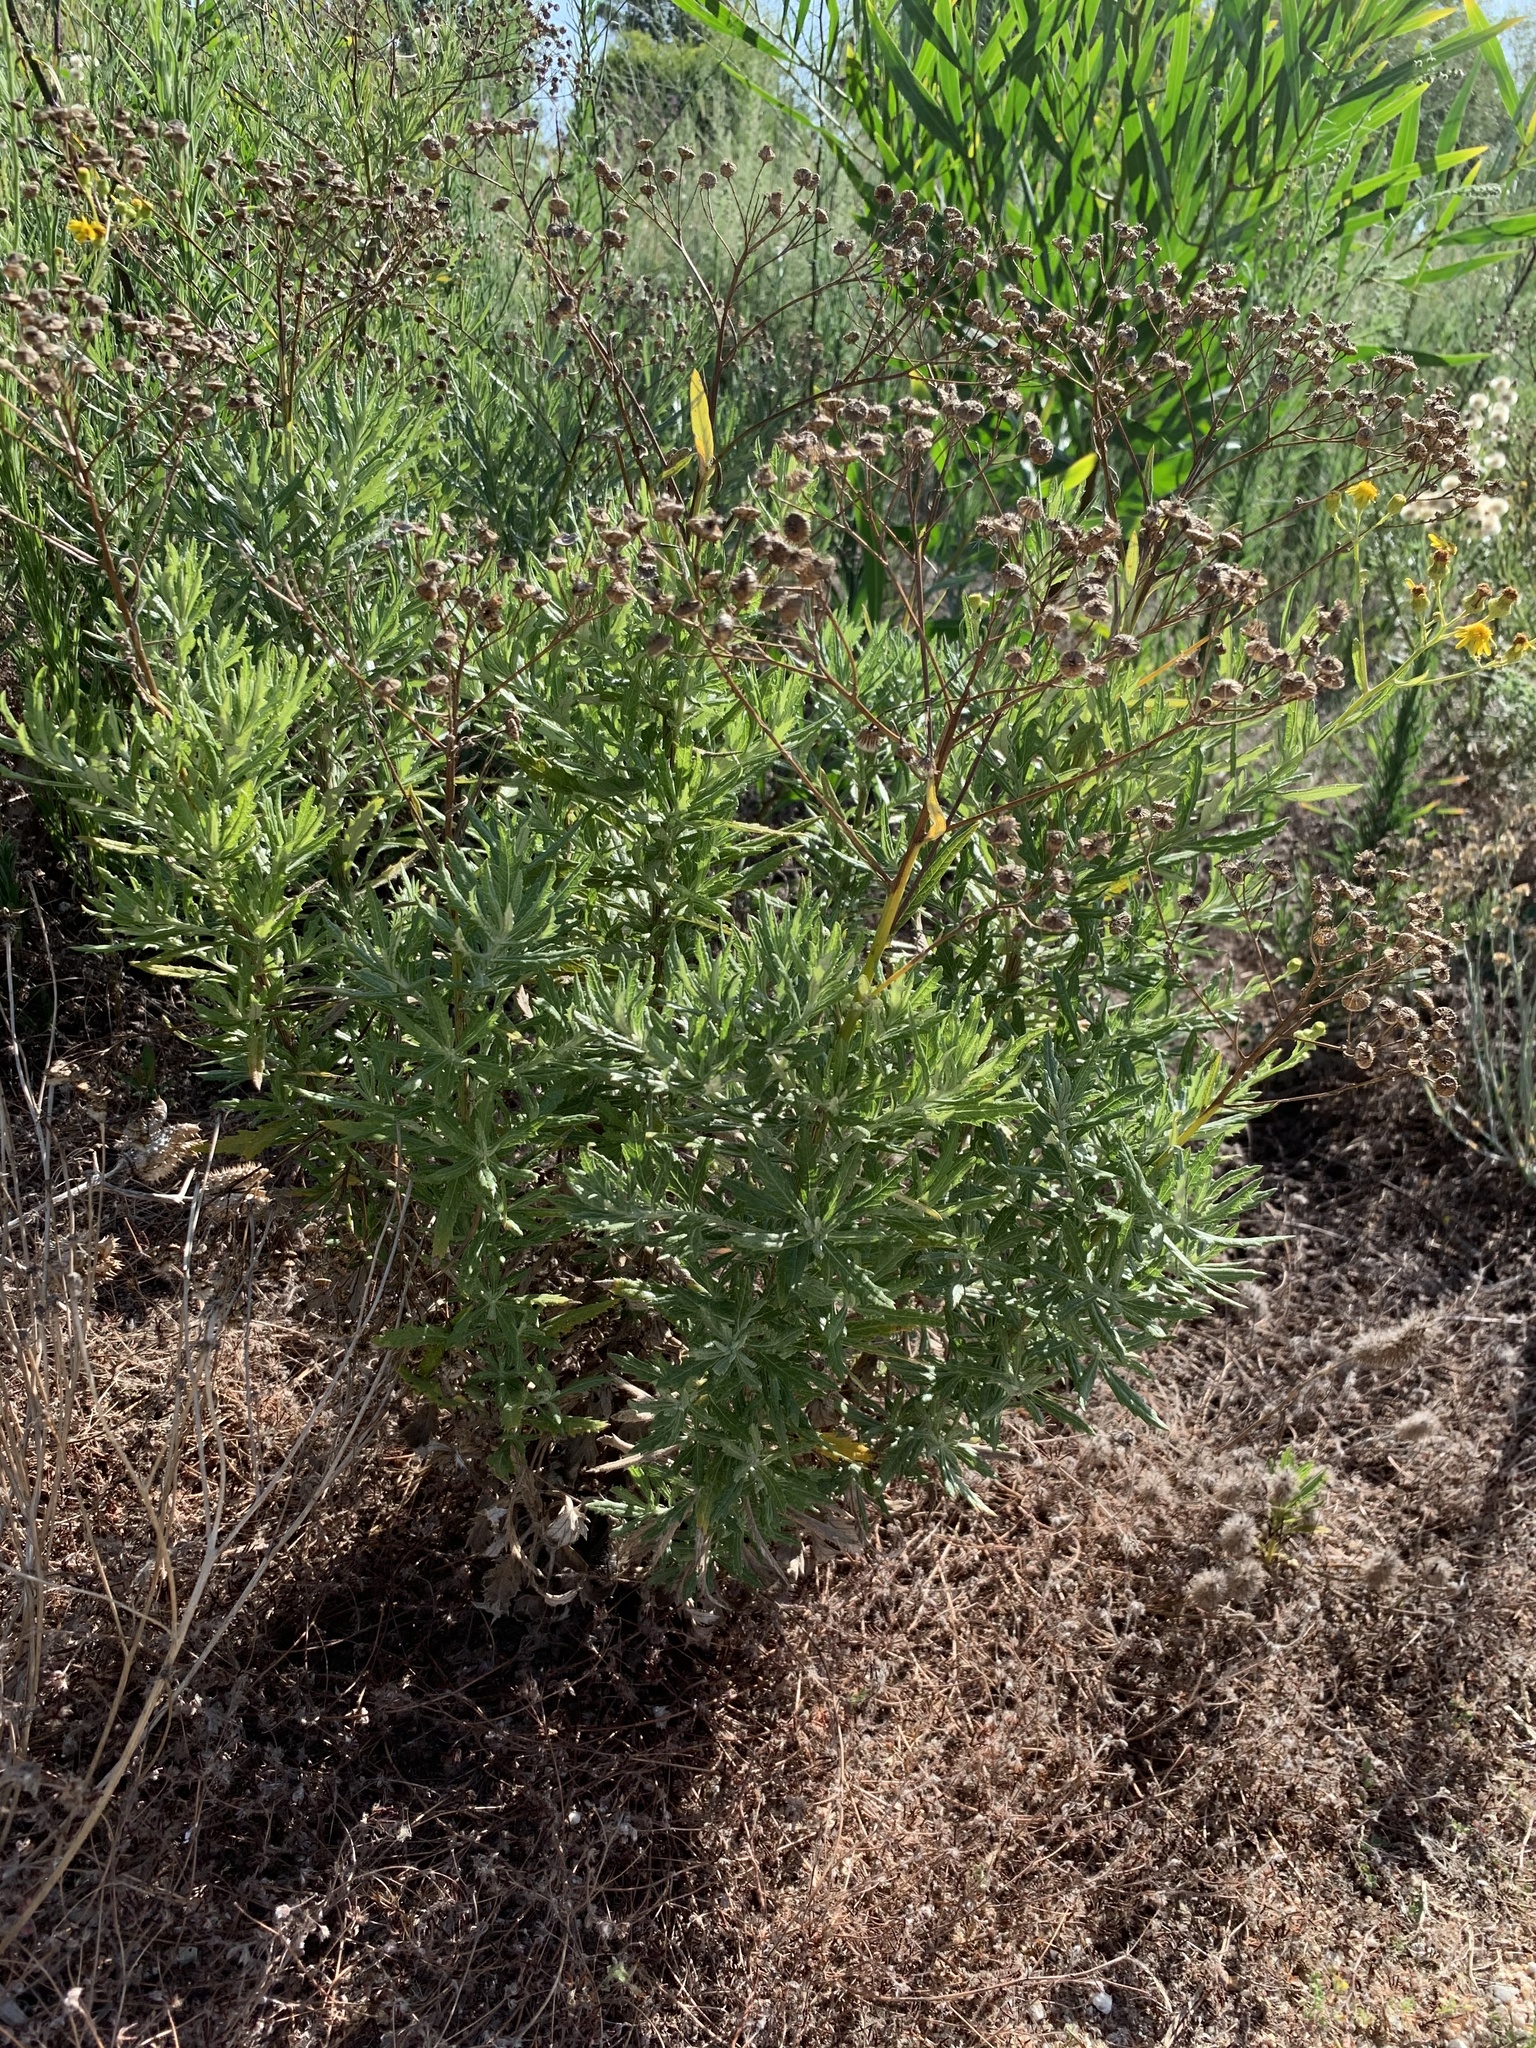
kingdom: Plantae
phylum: Tracheophyta
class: Magnoliopsida
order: Asterales
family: Asteraceae
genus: Senecio
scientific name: Senecio pterophorus
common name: Shoddy ragwort
